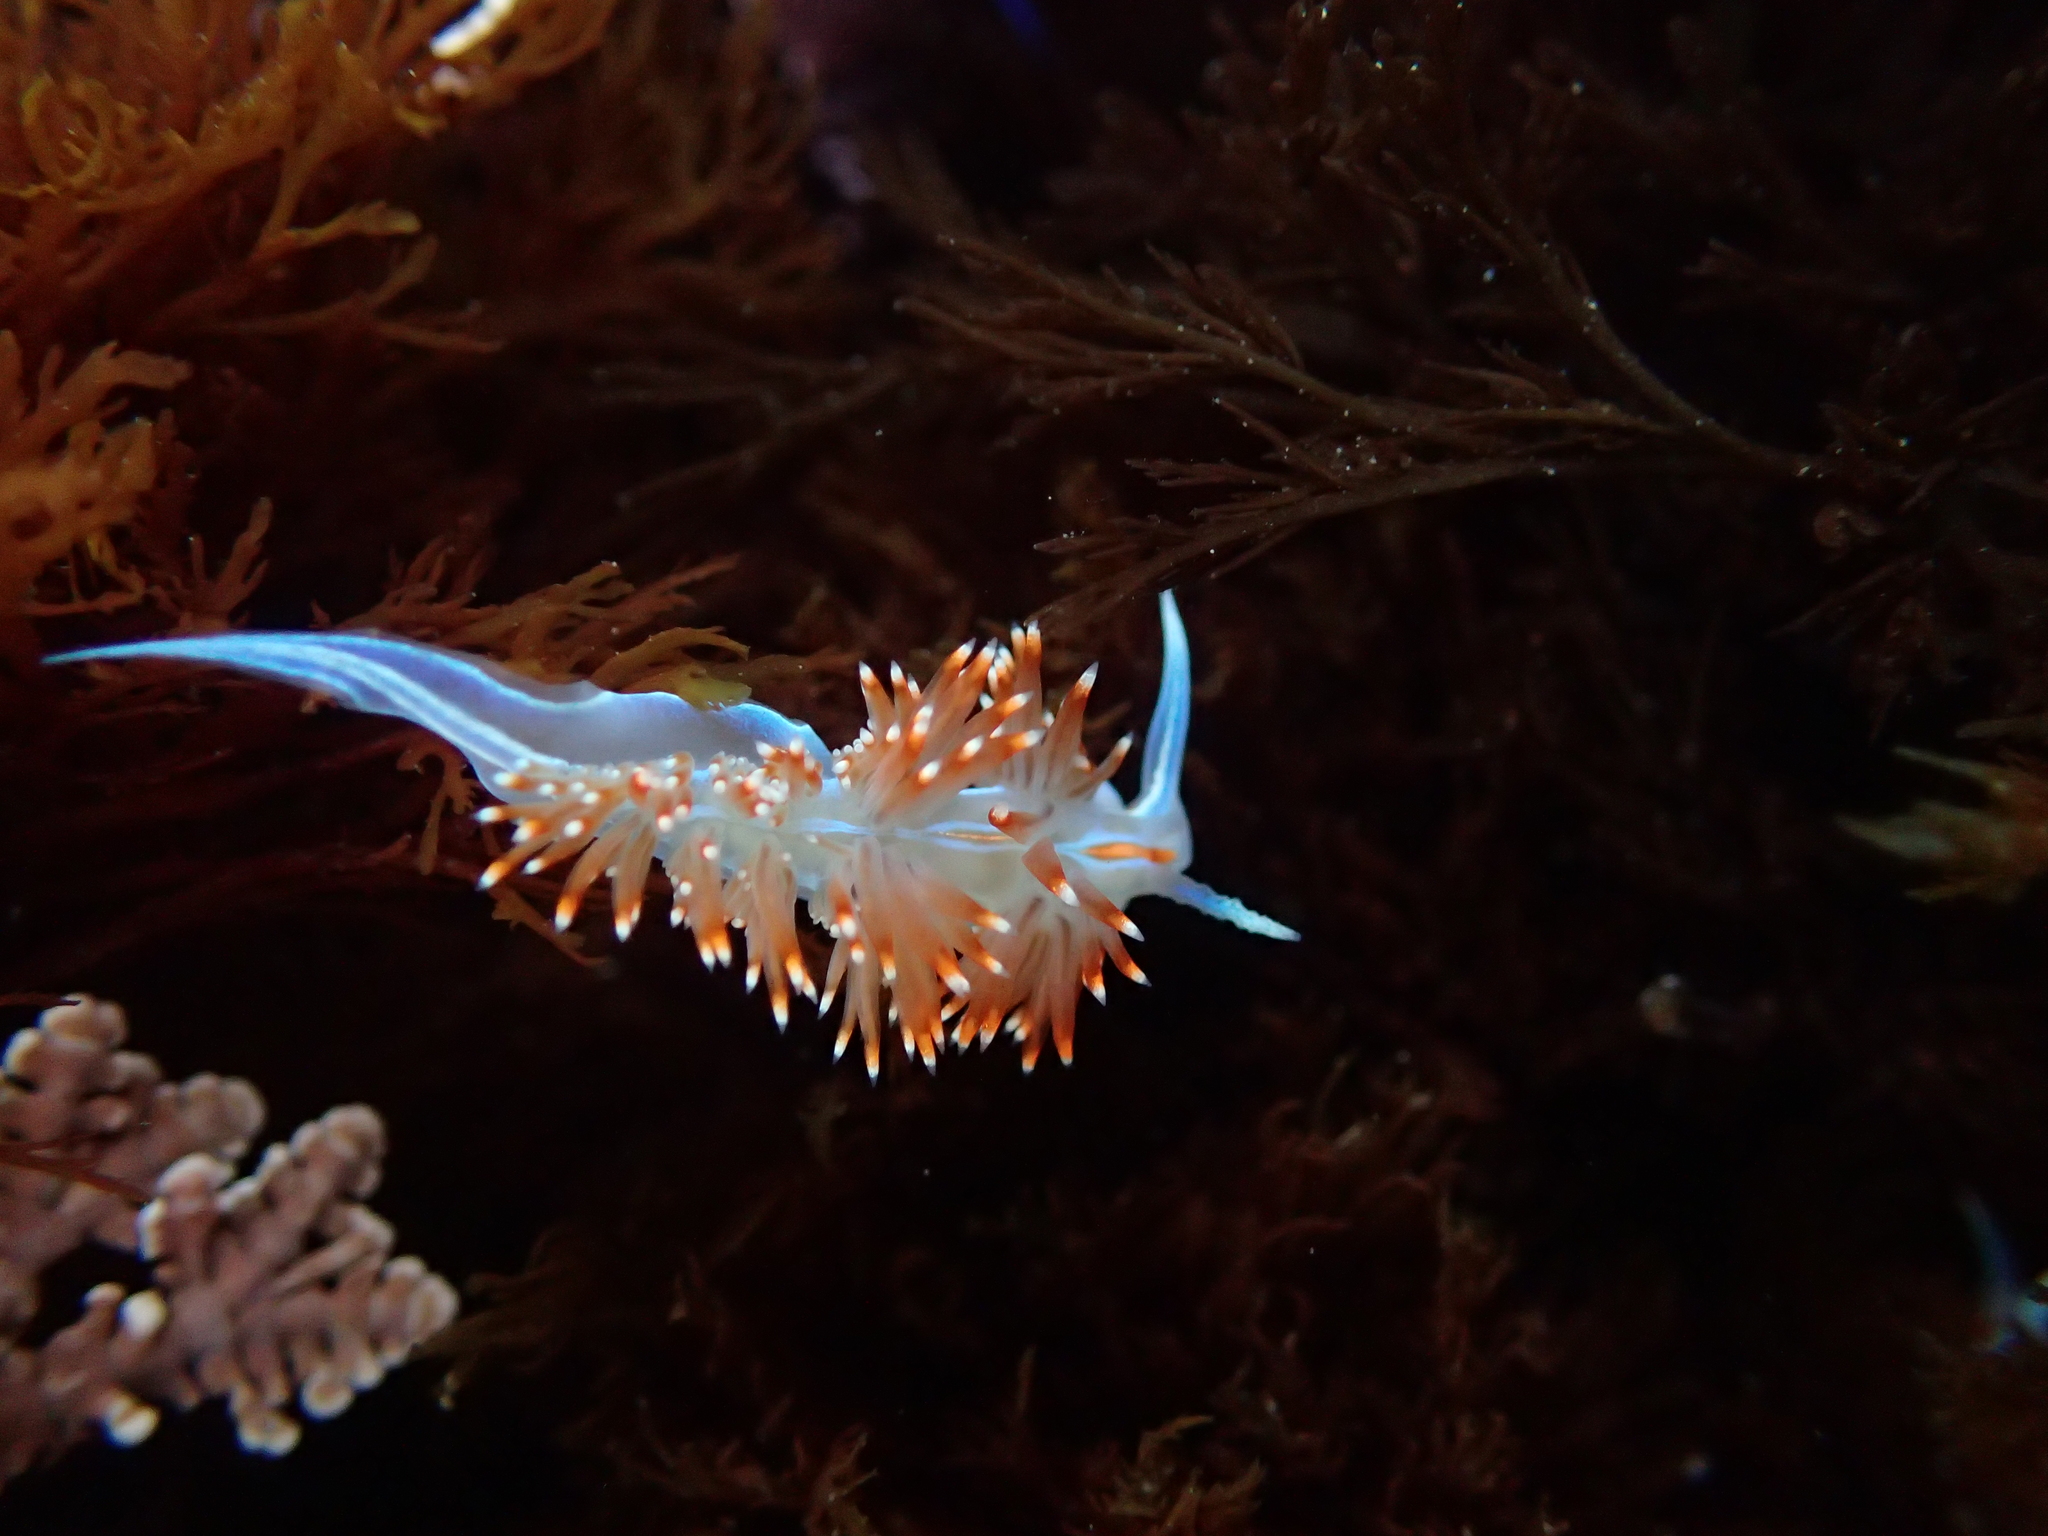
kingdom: Animalia
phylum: Mollusca
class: Gastropoda
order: Nudibranchia
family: Myrrhinidae
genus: Hermissenda
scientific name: Hermissenda opalescens
